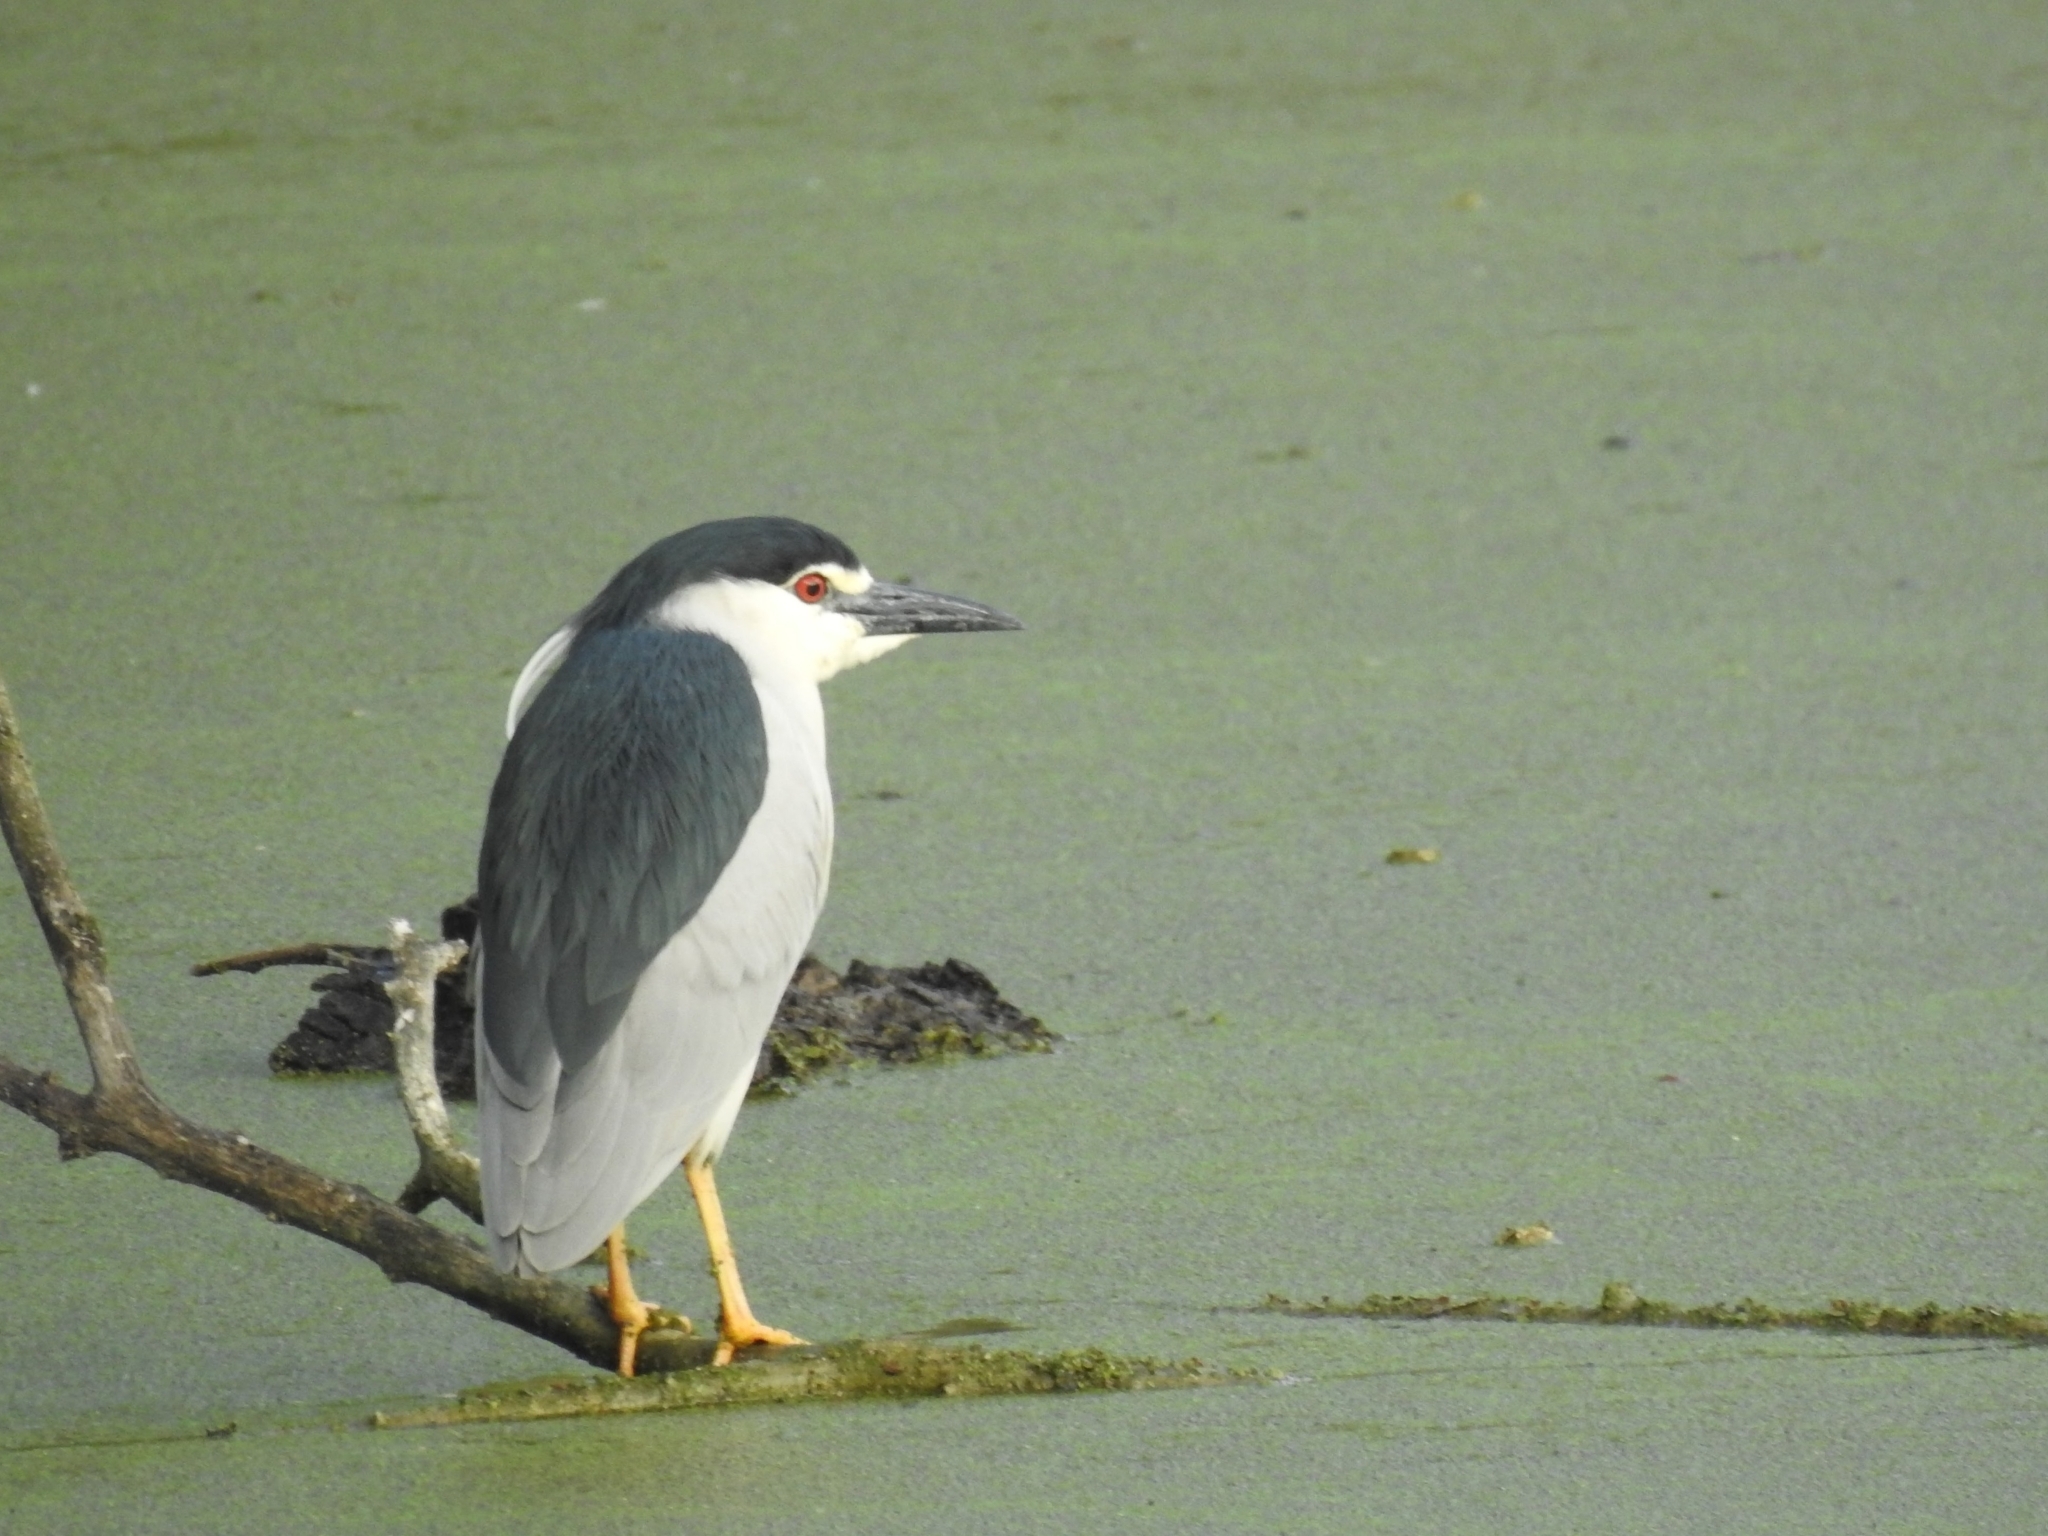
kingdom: Animalia
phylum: Chordata
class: Aves
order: Pelecaniformes
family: Ardeidae
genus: Nycticorax
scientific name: Nycticorax nycticorax
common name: Black-crowned night heron
